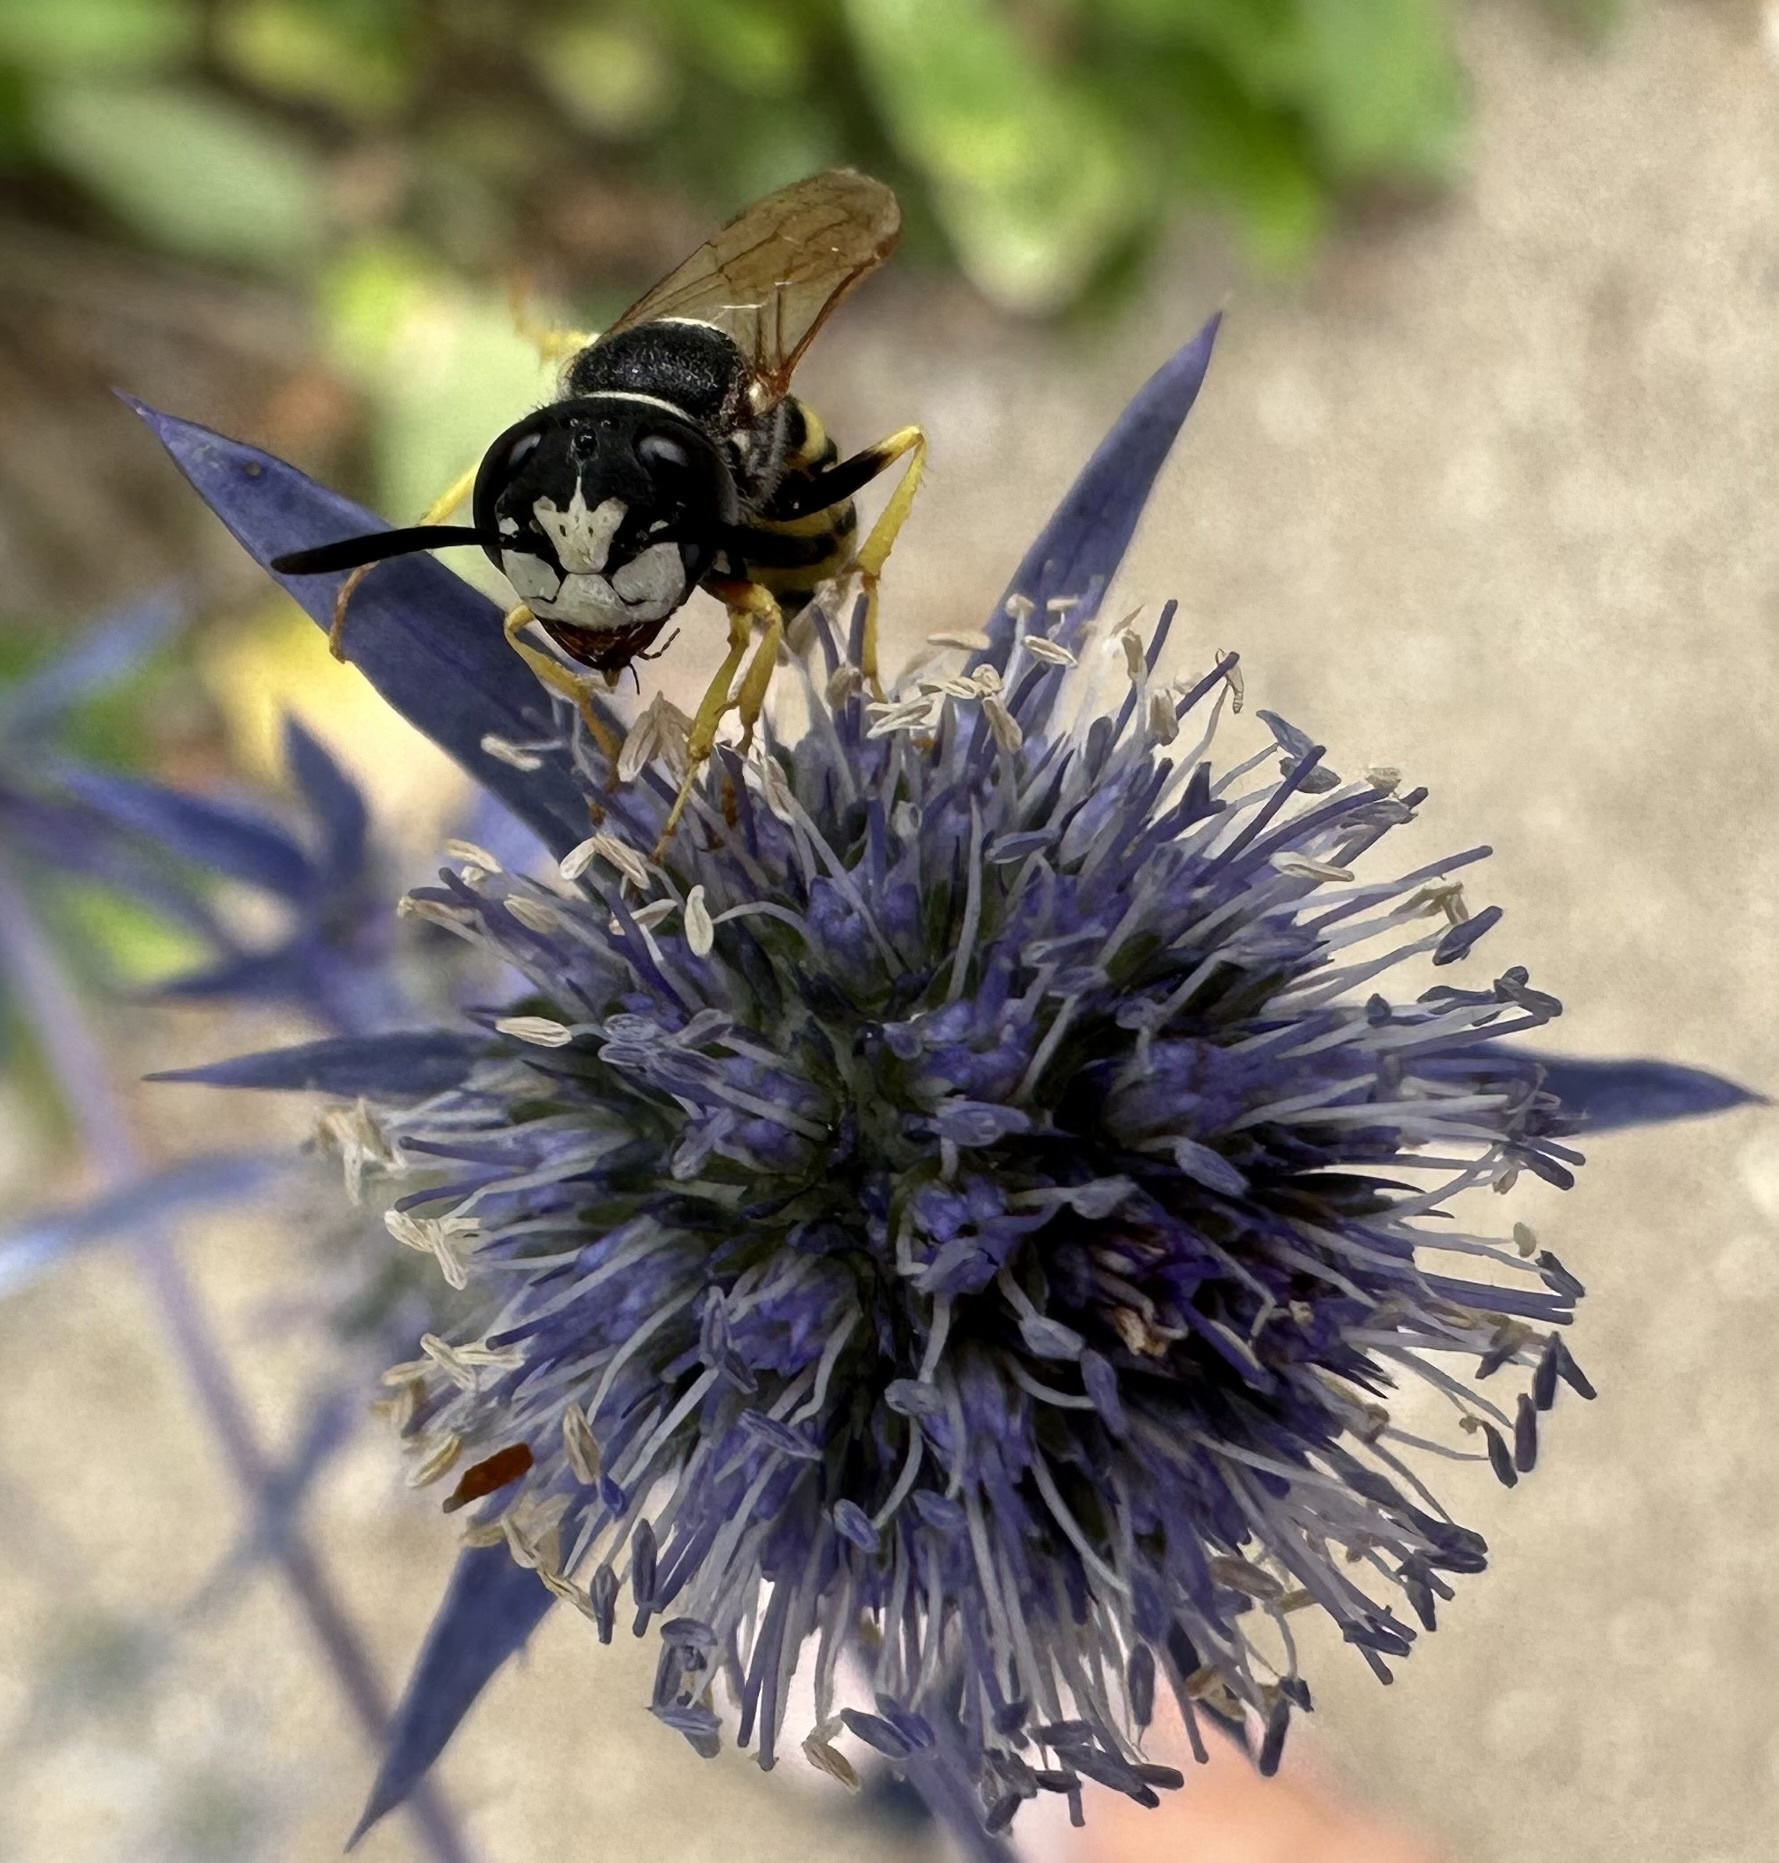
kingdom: Animalia
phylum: Arthropoda
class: Insecta
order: Hymenoptera
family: Crabronidae
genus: Philanthus
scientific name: Philanthus triangulum
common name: Bee wolf
